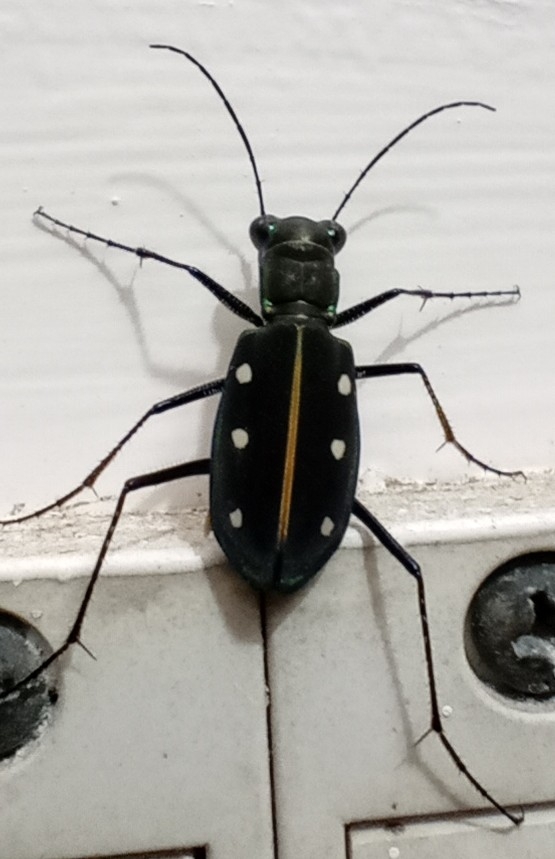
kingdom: Animalia
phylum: Arthropoda
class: Insecta
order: Coleoptera
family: Carabidae
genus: Cicindela
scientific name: Cicindela flavomaculata
